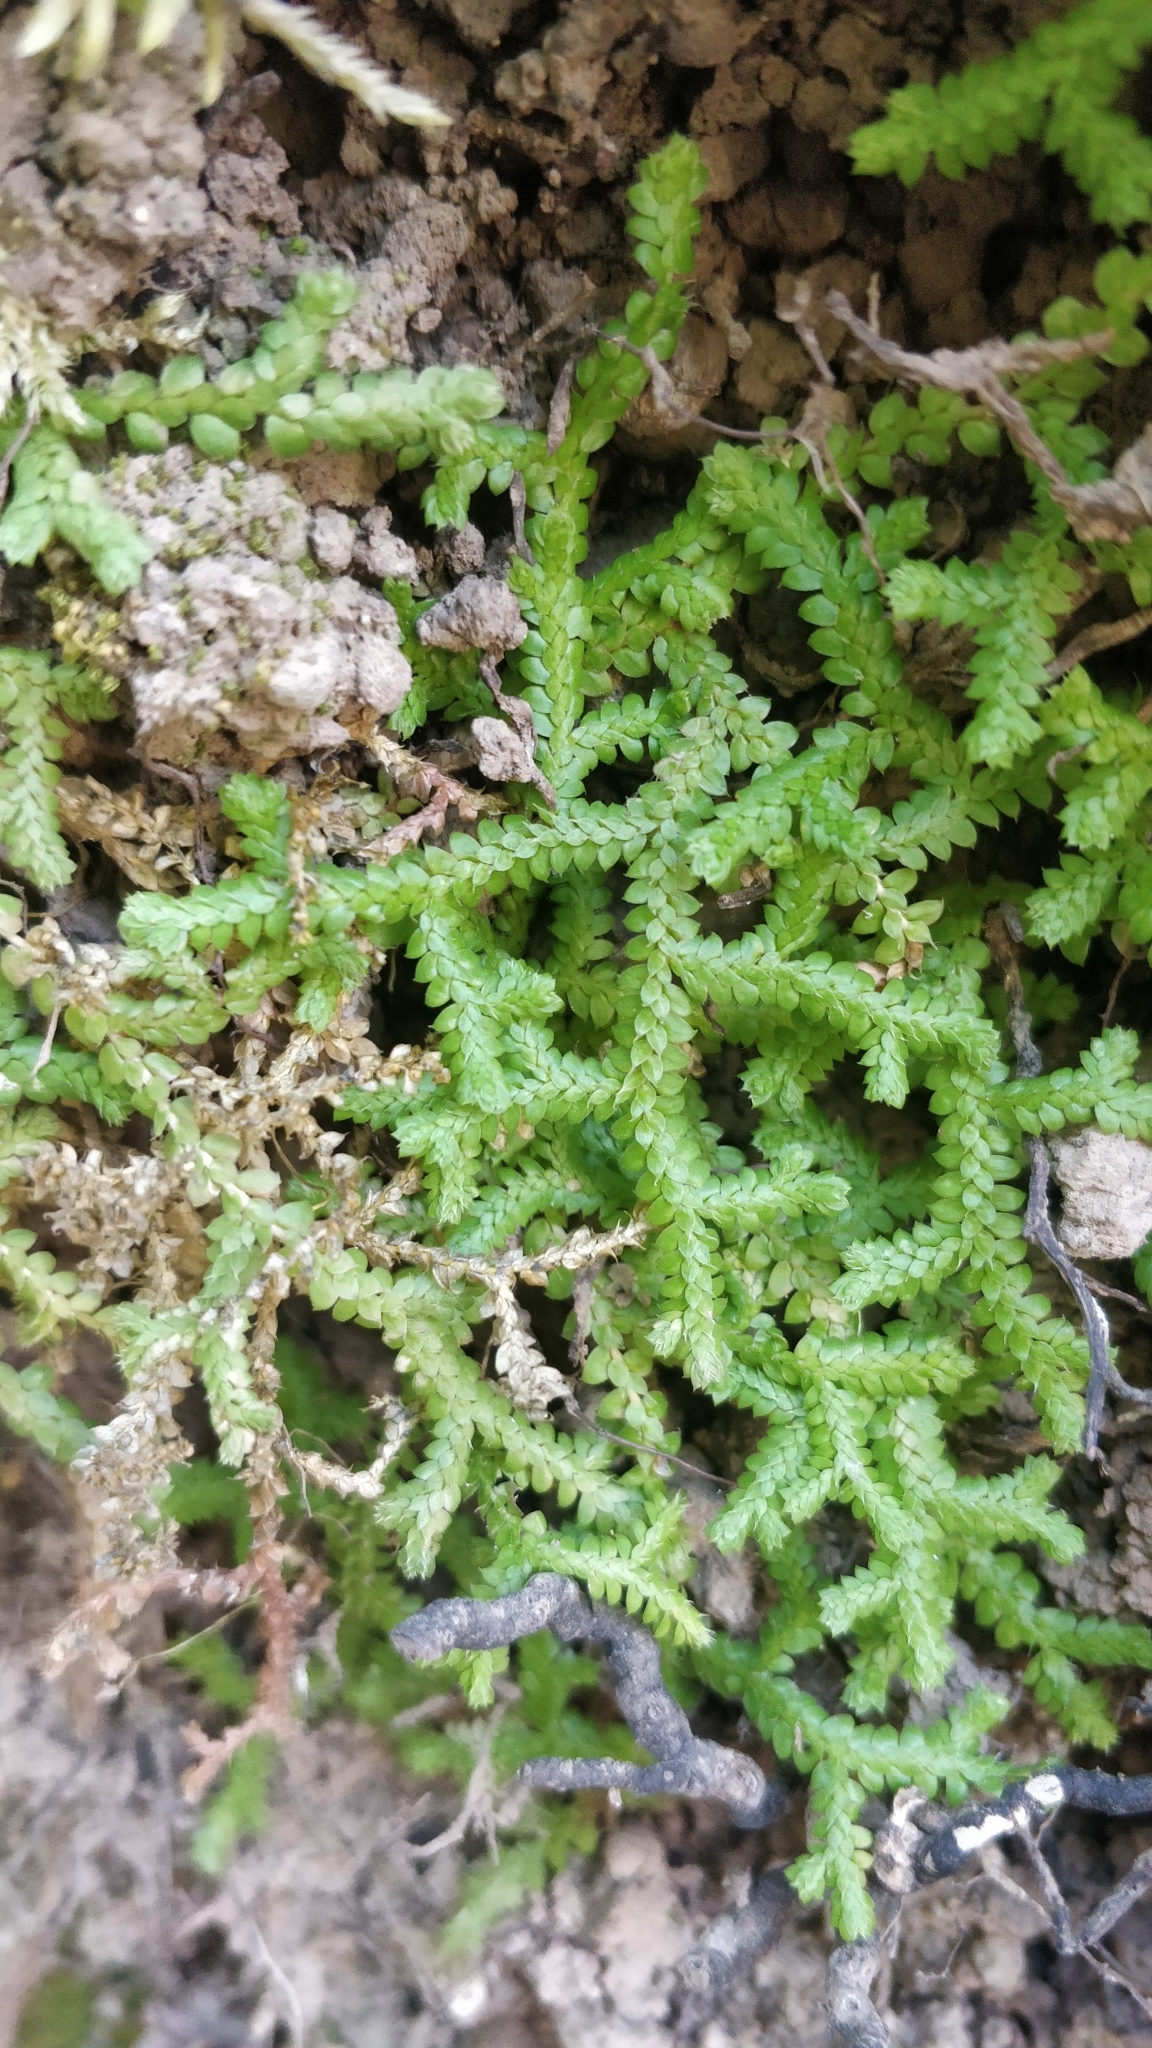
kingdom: Plantae
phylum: Tracheophyta
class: Lycopodiopsida
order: Selaginellales
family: Selaginellaceae
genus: Selaginella
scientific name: Selaginella denticulata
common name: Toothed-leaved clubmoss
